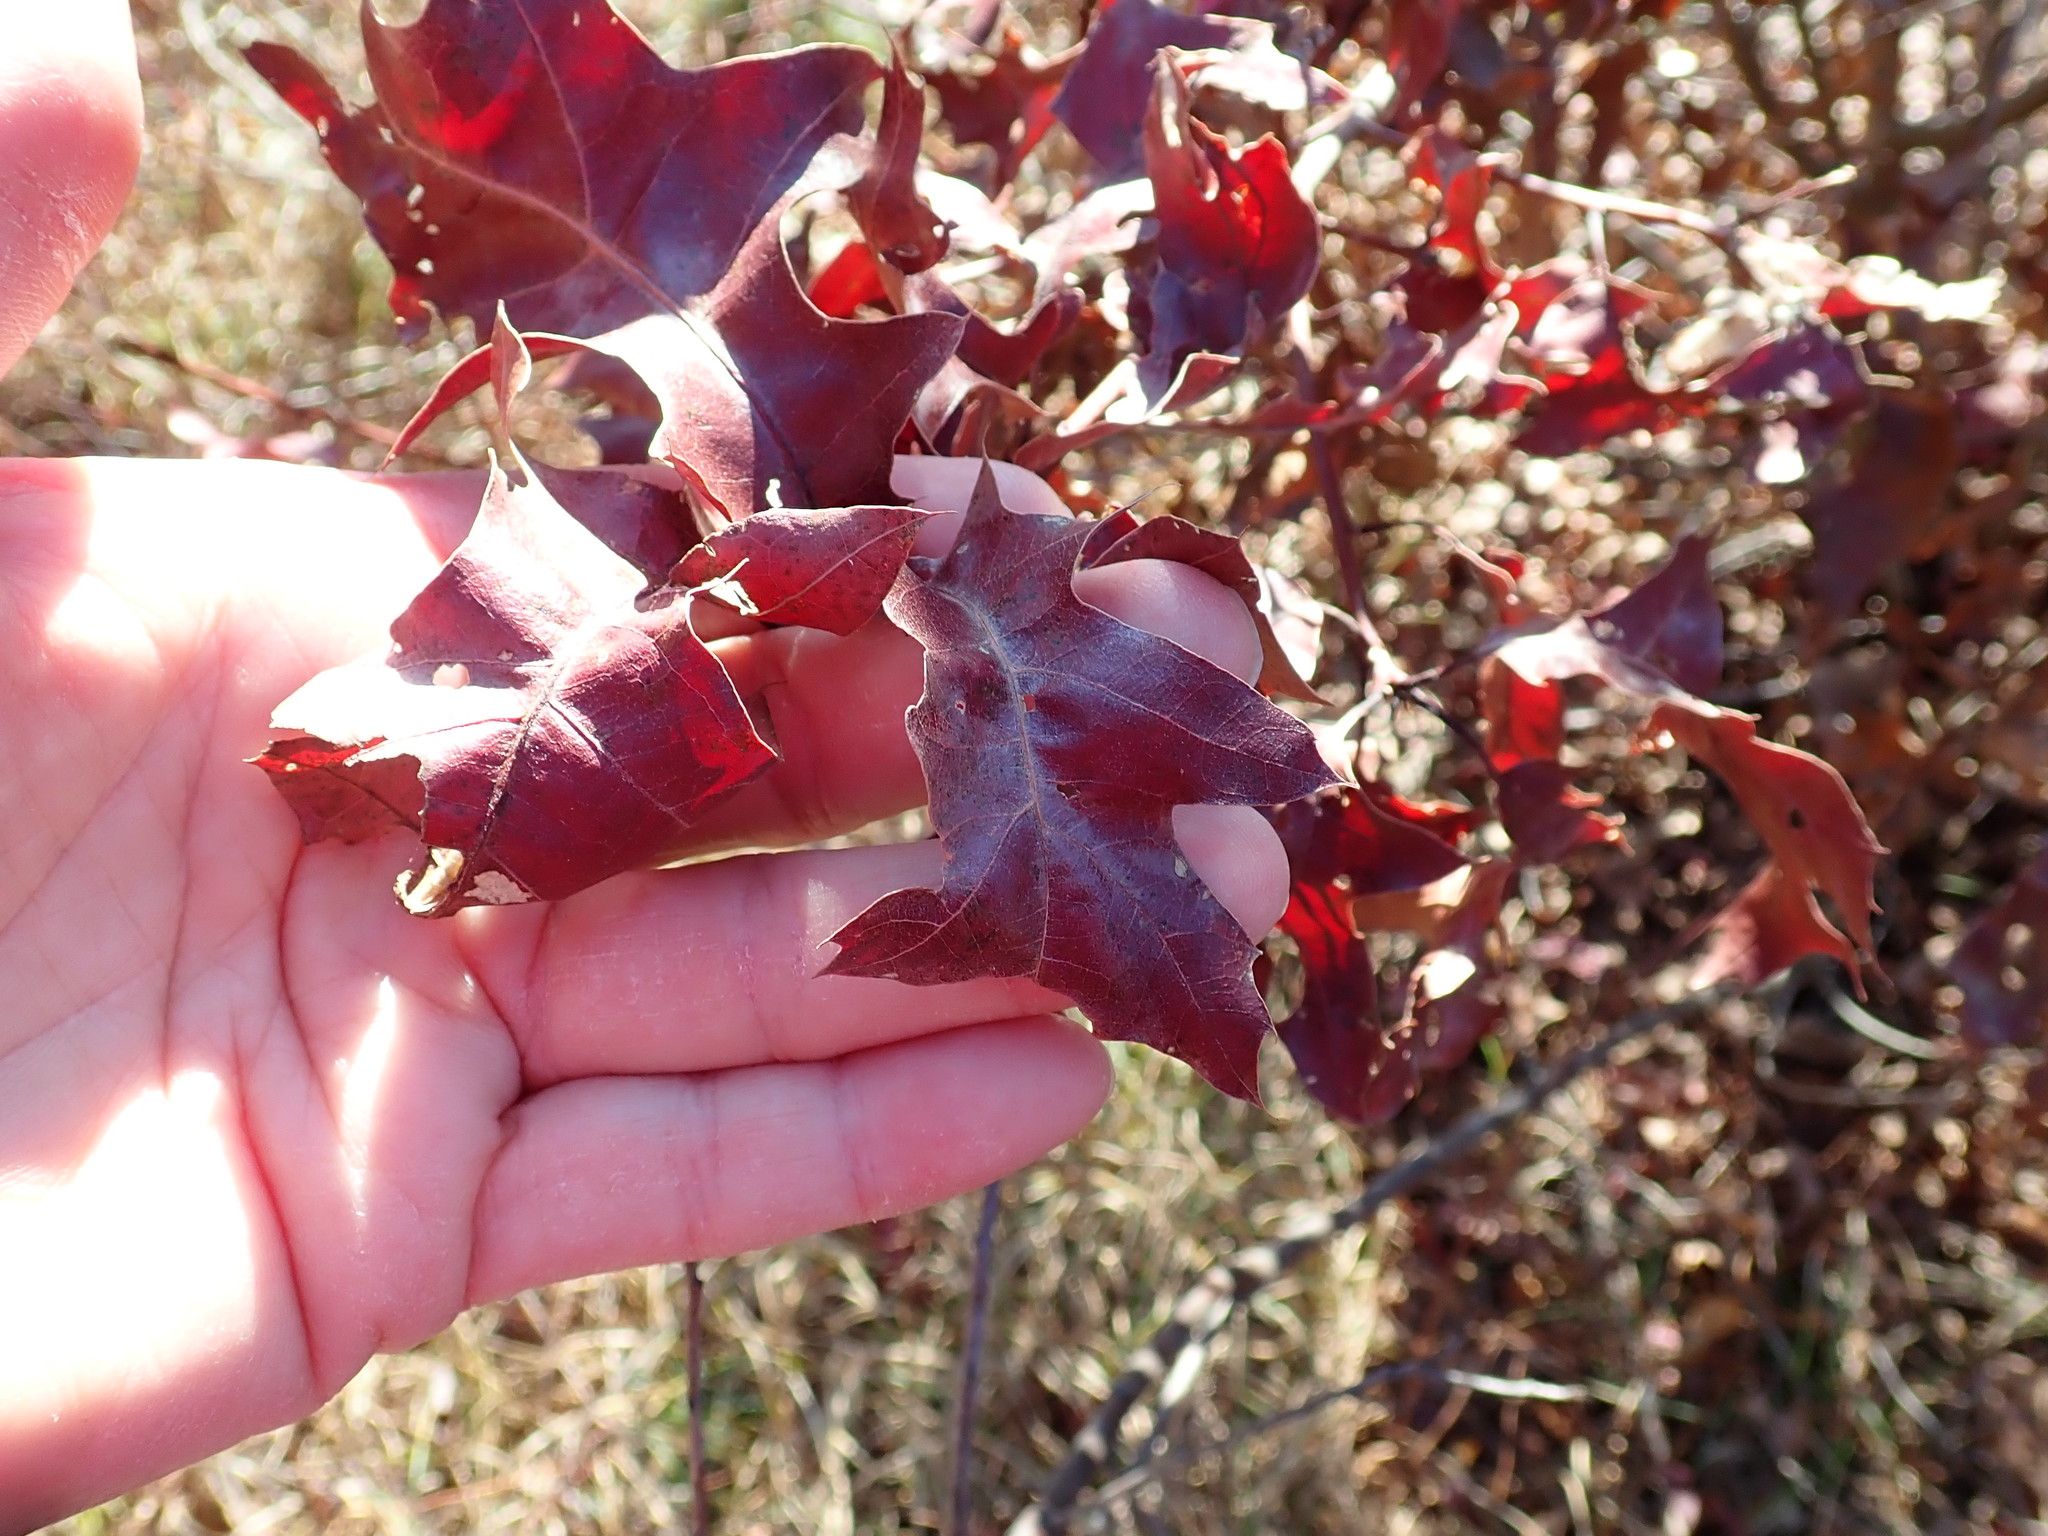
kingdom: Plantae
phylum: Tracheophyta
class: Magnoliopsida
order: Fagales
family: Fagaceae
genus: Quercus
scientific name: Quercus ilicifolia
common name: Bear oak
